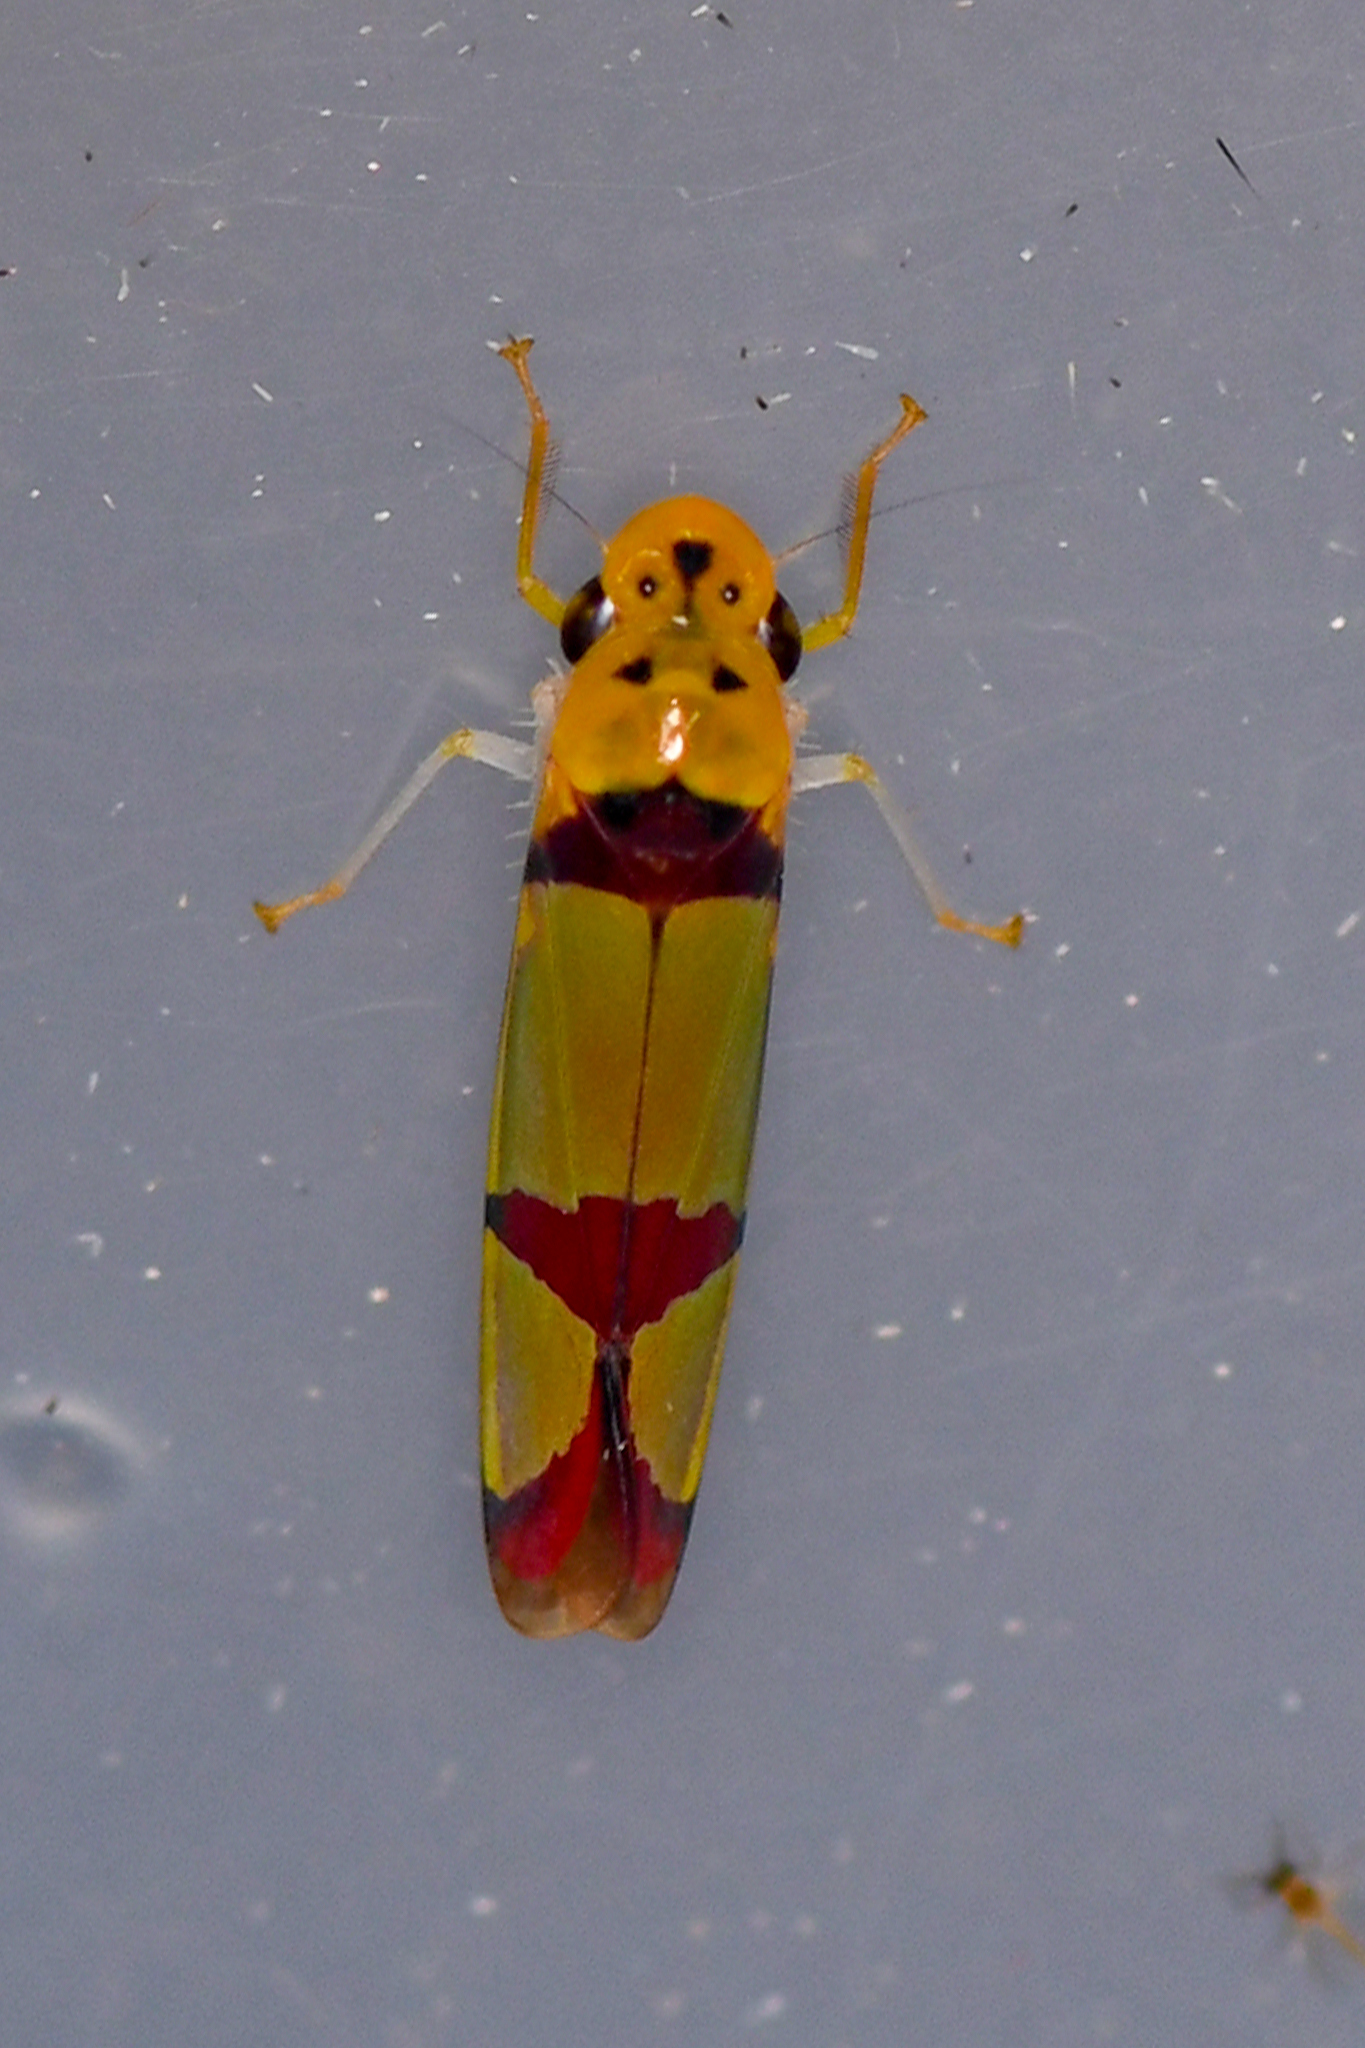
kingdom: Animalia
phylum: Arthropoda
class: Insecta
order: Hemiptera
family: Cicadellidae
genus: Baleja
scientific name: Baleja rufofasciata
